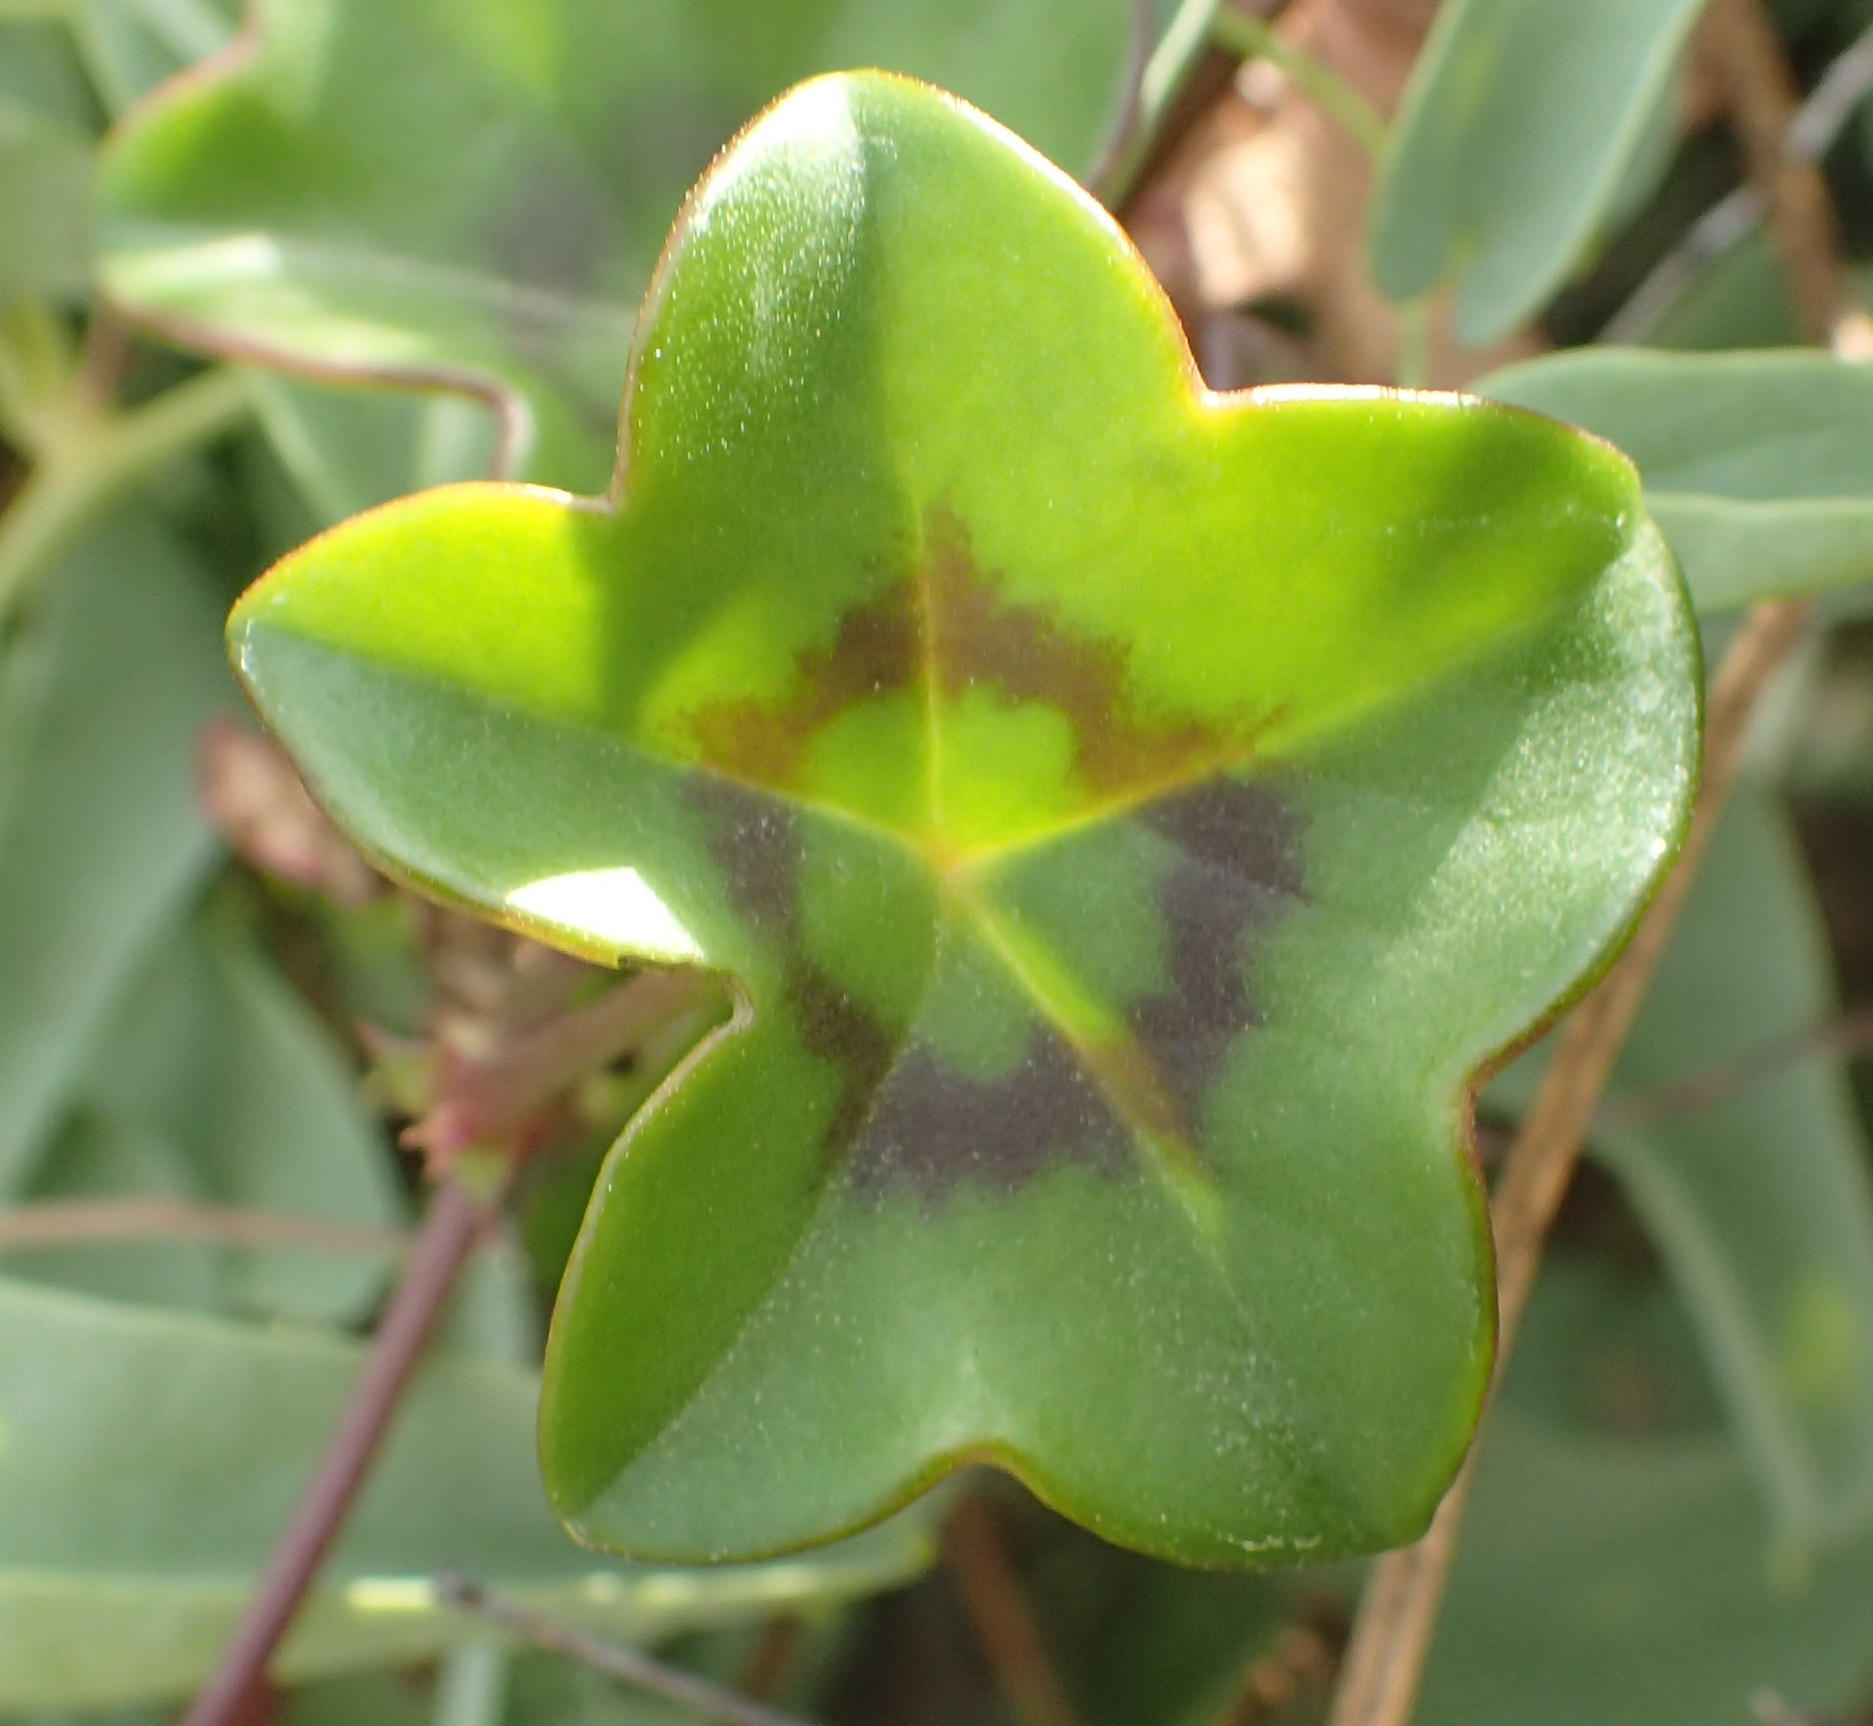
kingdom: Plantae
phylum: Tracheophyta
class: Magnoliopsida
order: Geraniales
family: Geraniaceae
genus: Pelargonium
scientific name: Pelargonium peltatum
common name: Ivyleaf geranium
